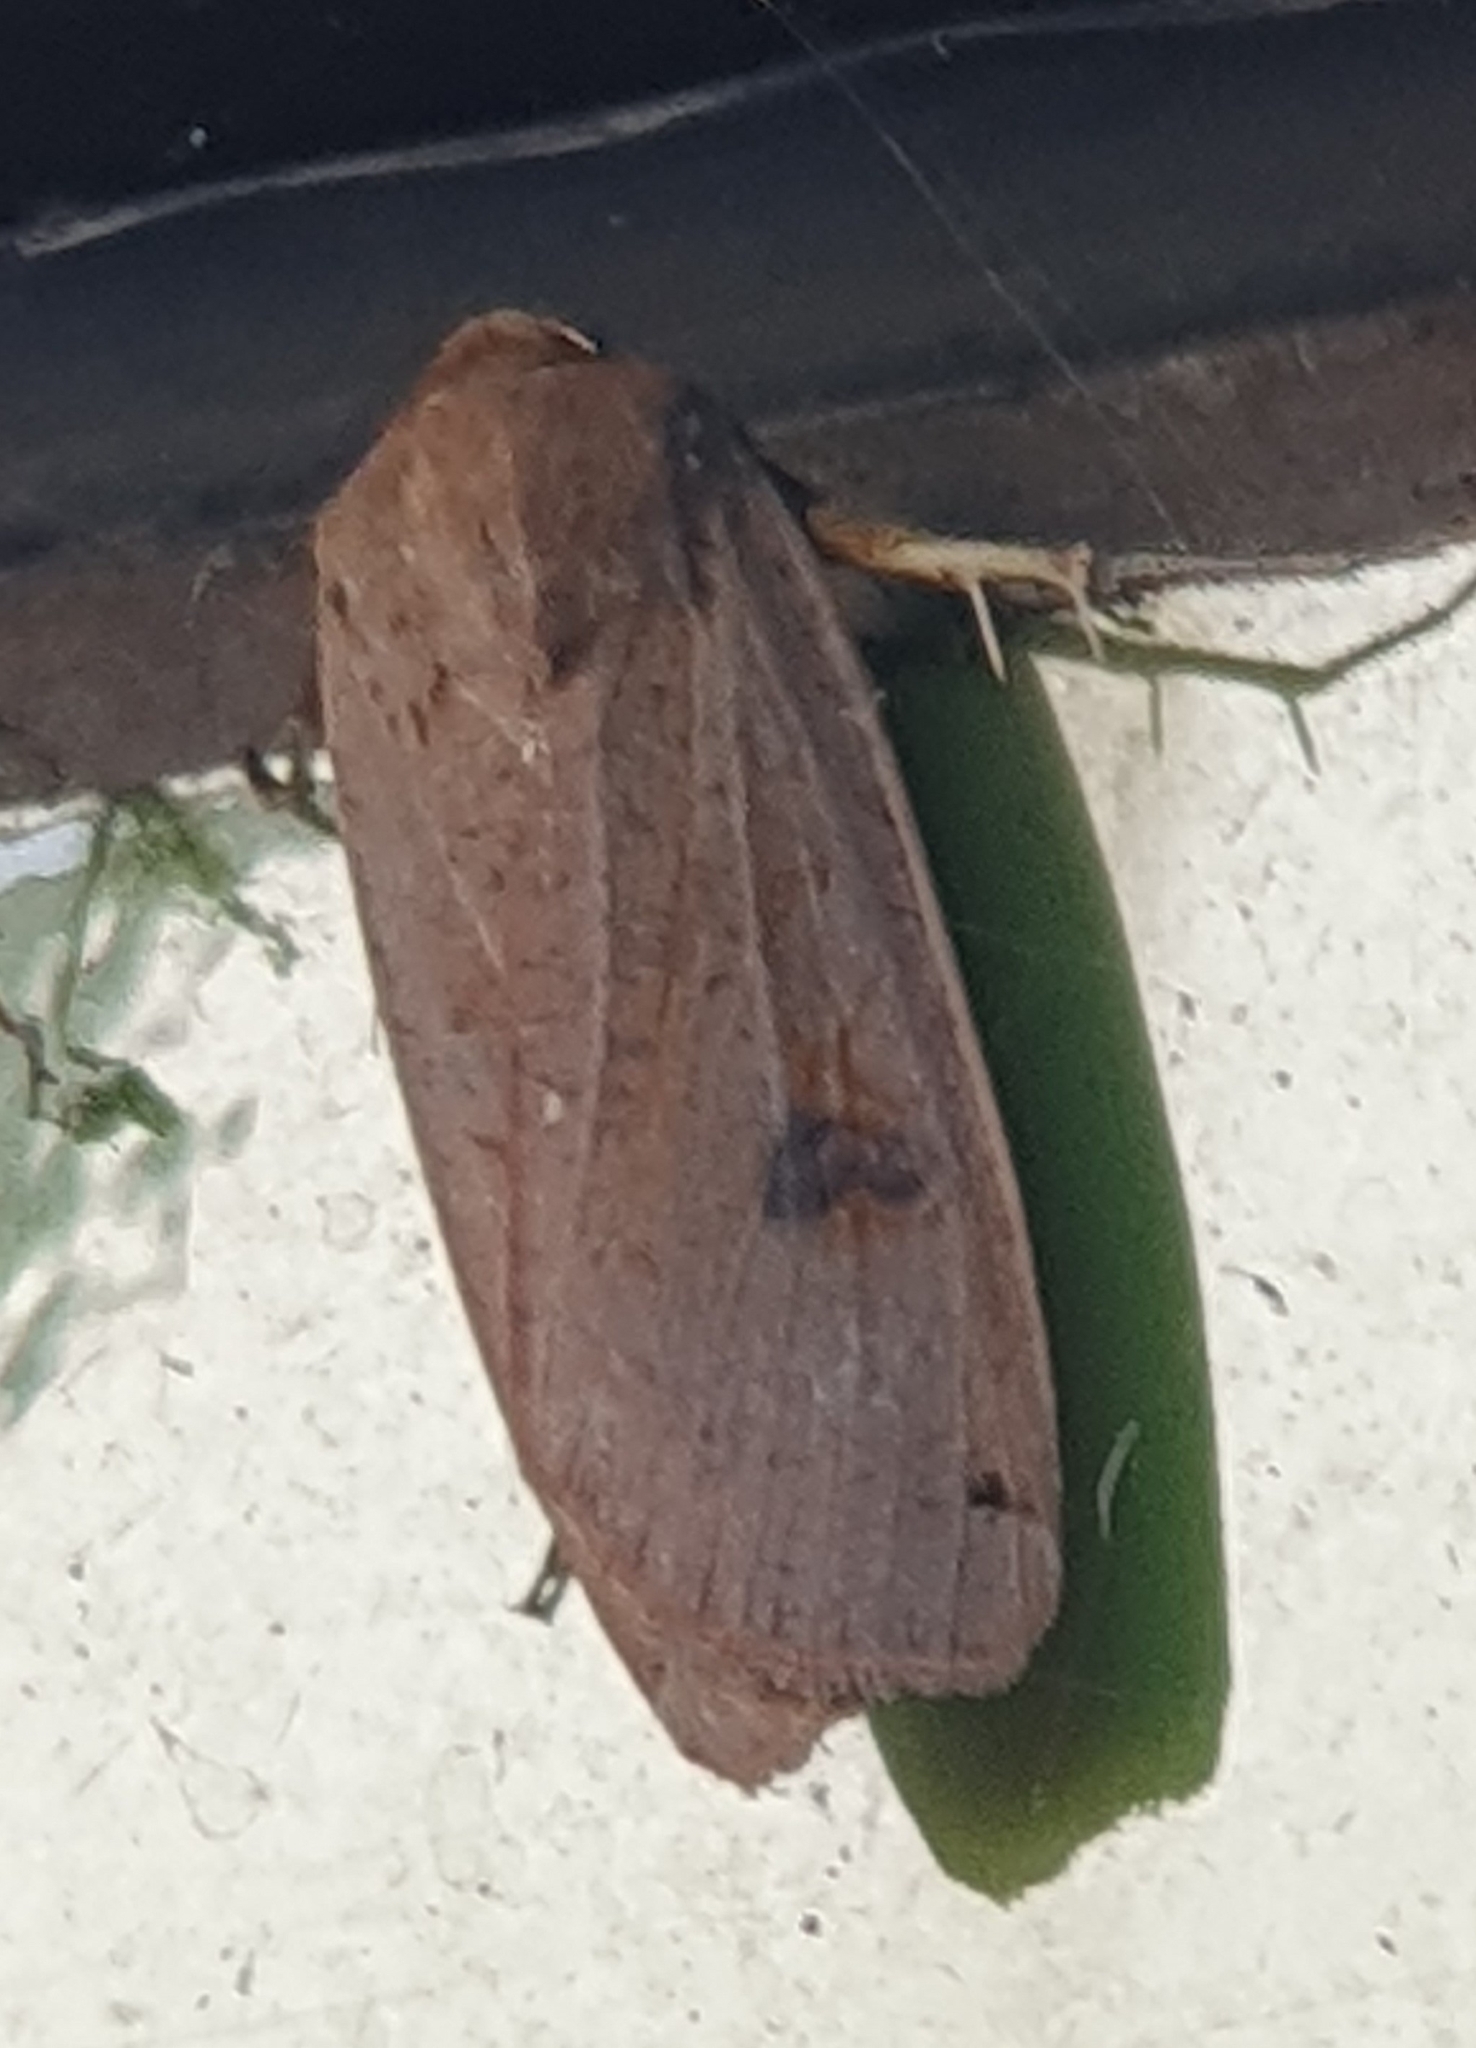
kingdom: Animalia
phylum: Arthropoda
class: Insecta
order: Lepidoptera
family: Noctuidae
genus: Noctua
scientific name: Noctua pronuba
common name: Large yellow underwing
